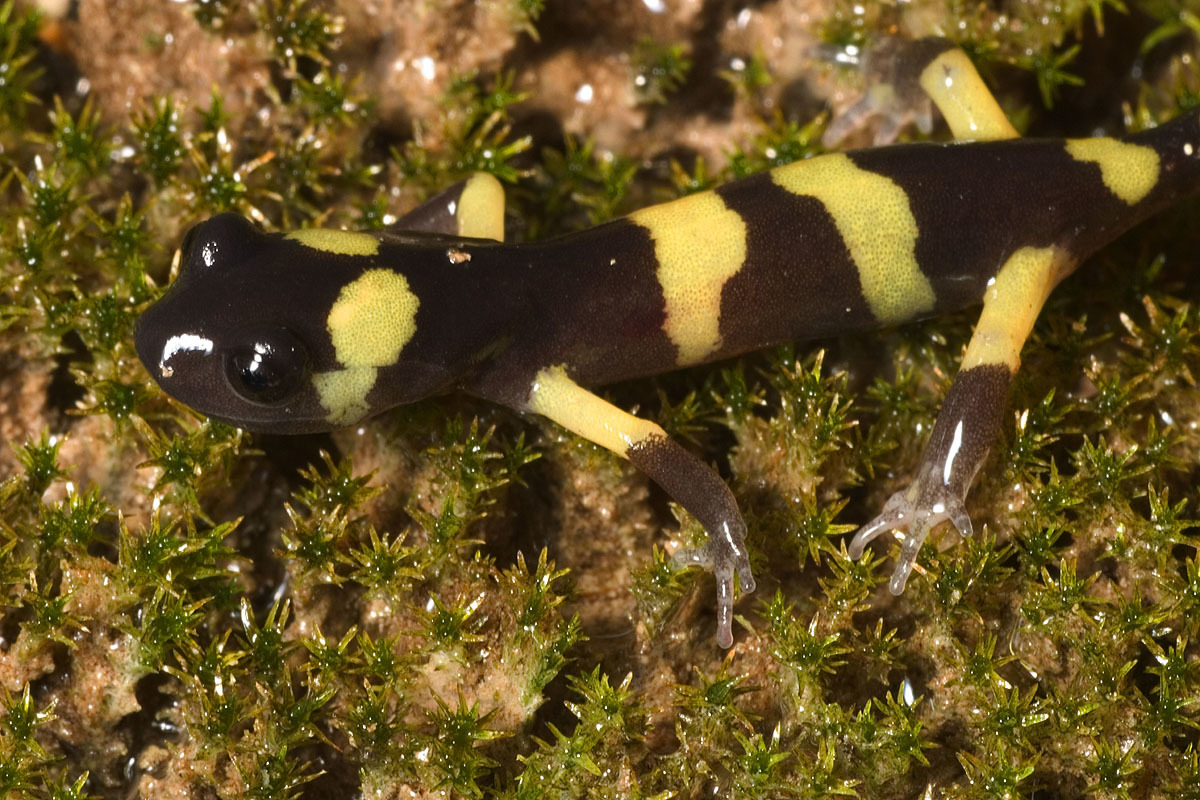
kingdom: Animalia
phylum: Chordata
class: Amphibia
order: Caudata
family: Plethodontidae
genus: Ensatina
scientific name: Ensatina eschscholtzii
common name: Ensatina
